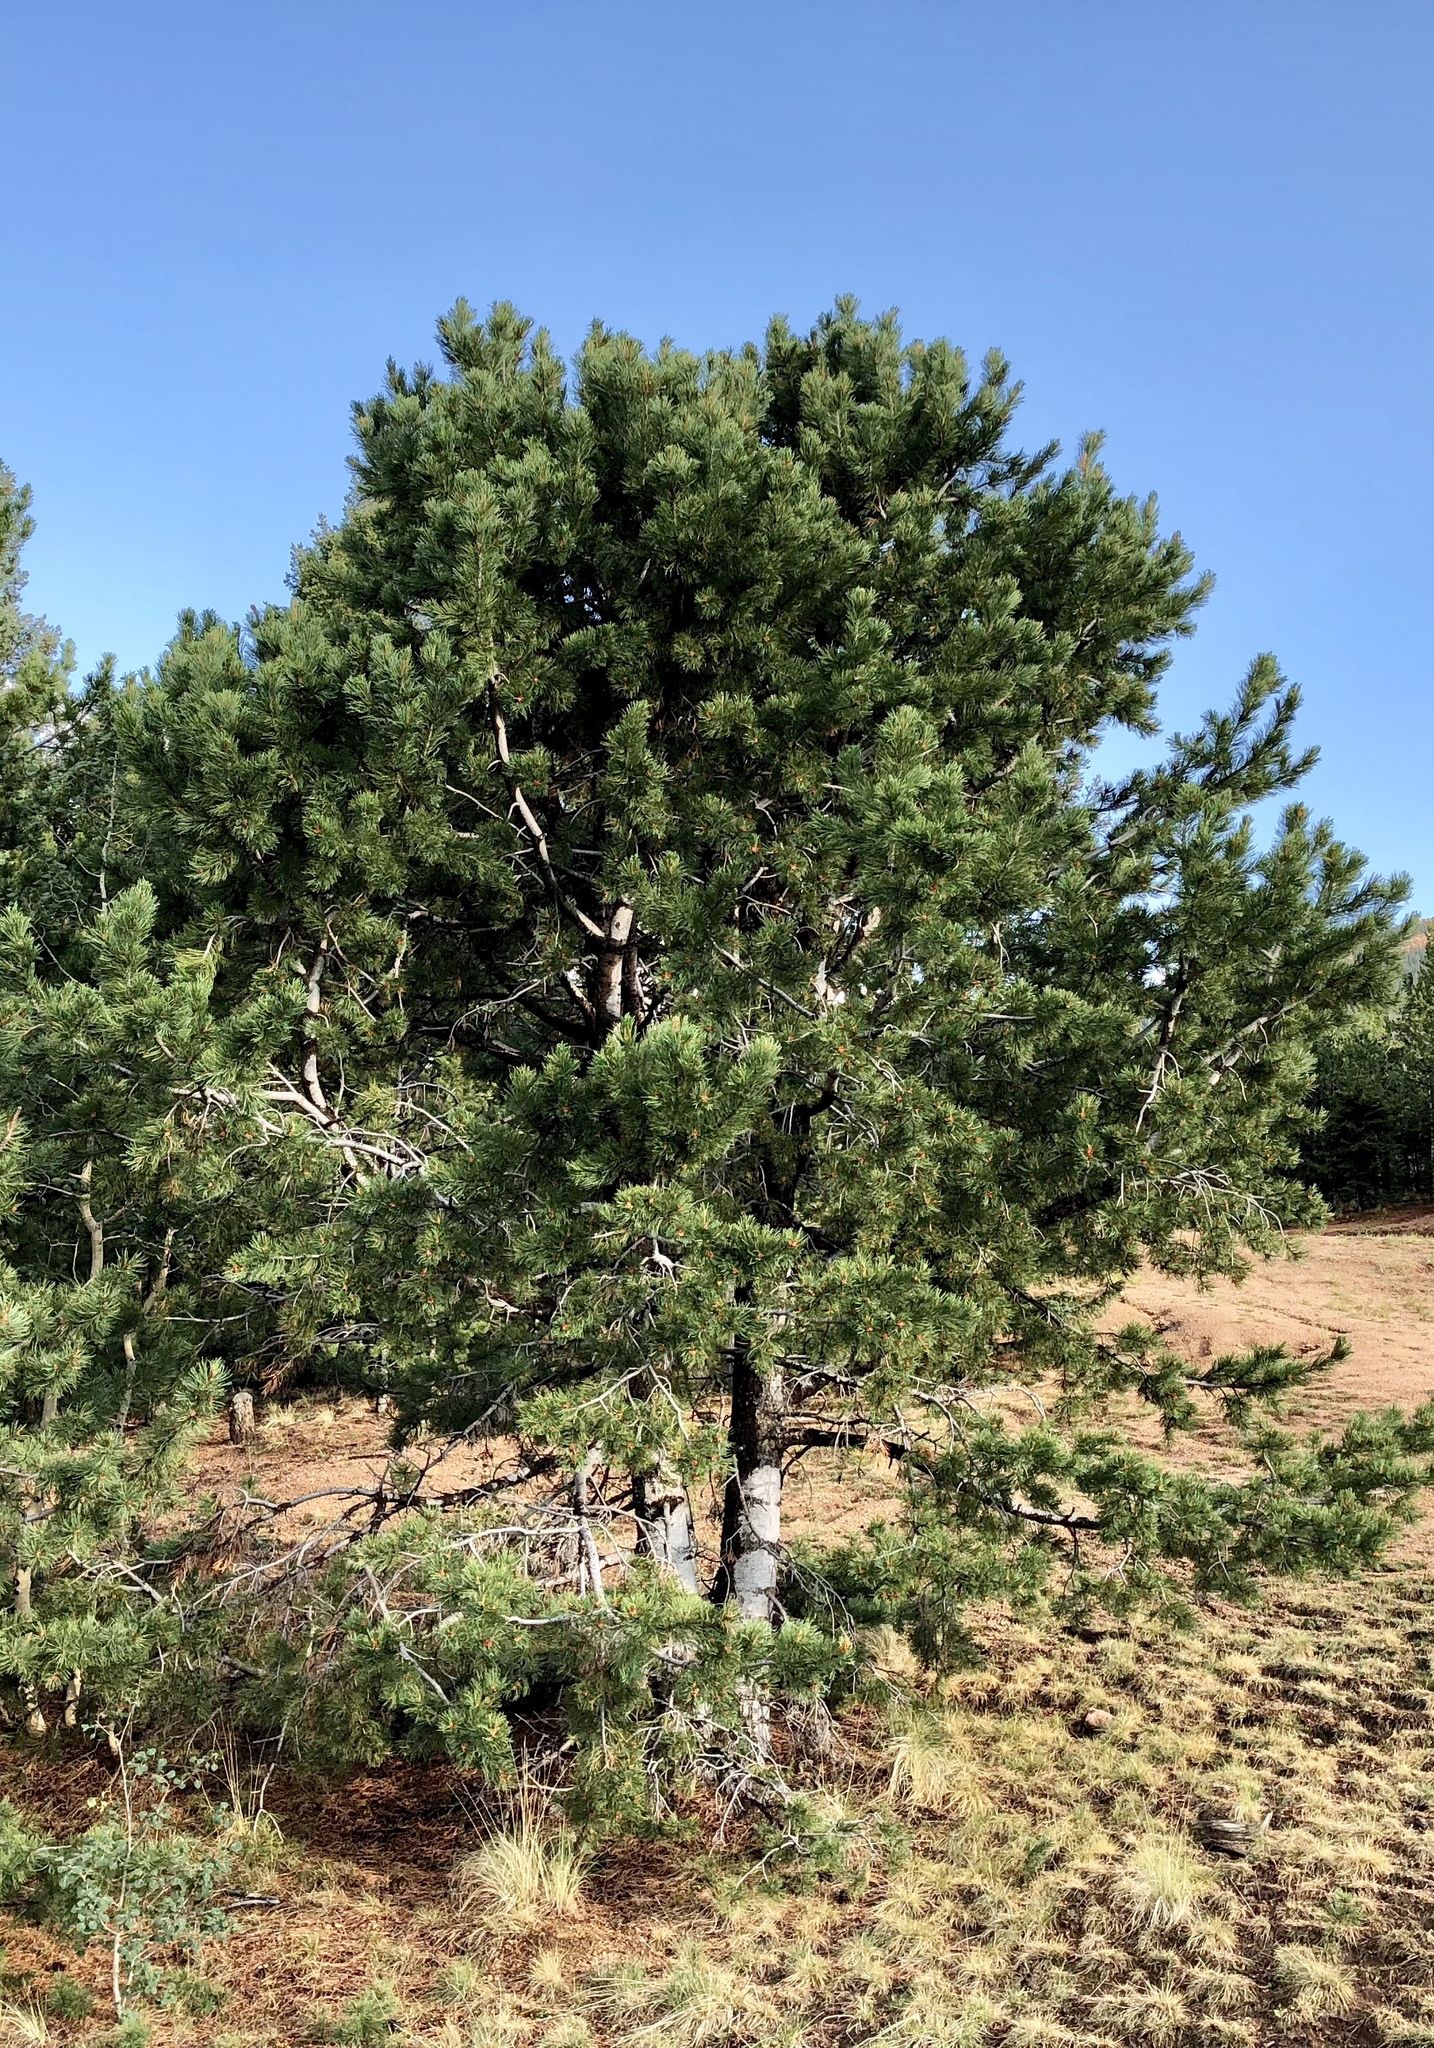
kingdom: Plantae
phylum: Tracheophyta
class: Pinopsida
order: Pinales
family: Pinaceae
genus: Pinus
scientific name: Pinus flexilis
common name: Limber pine
